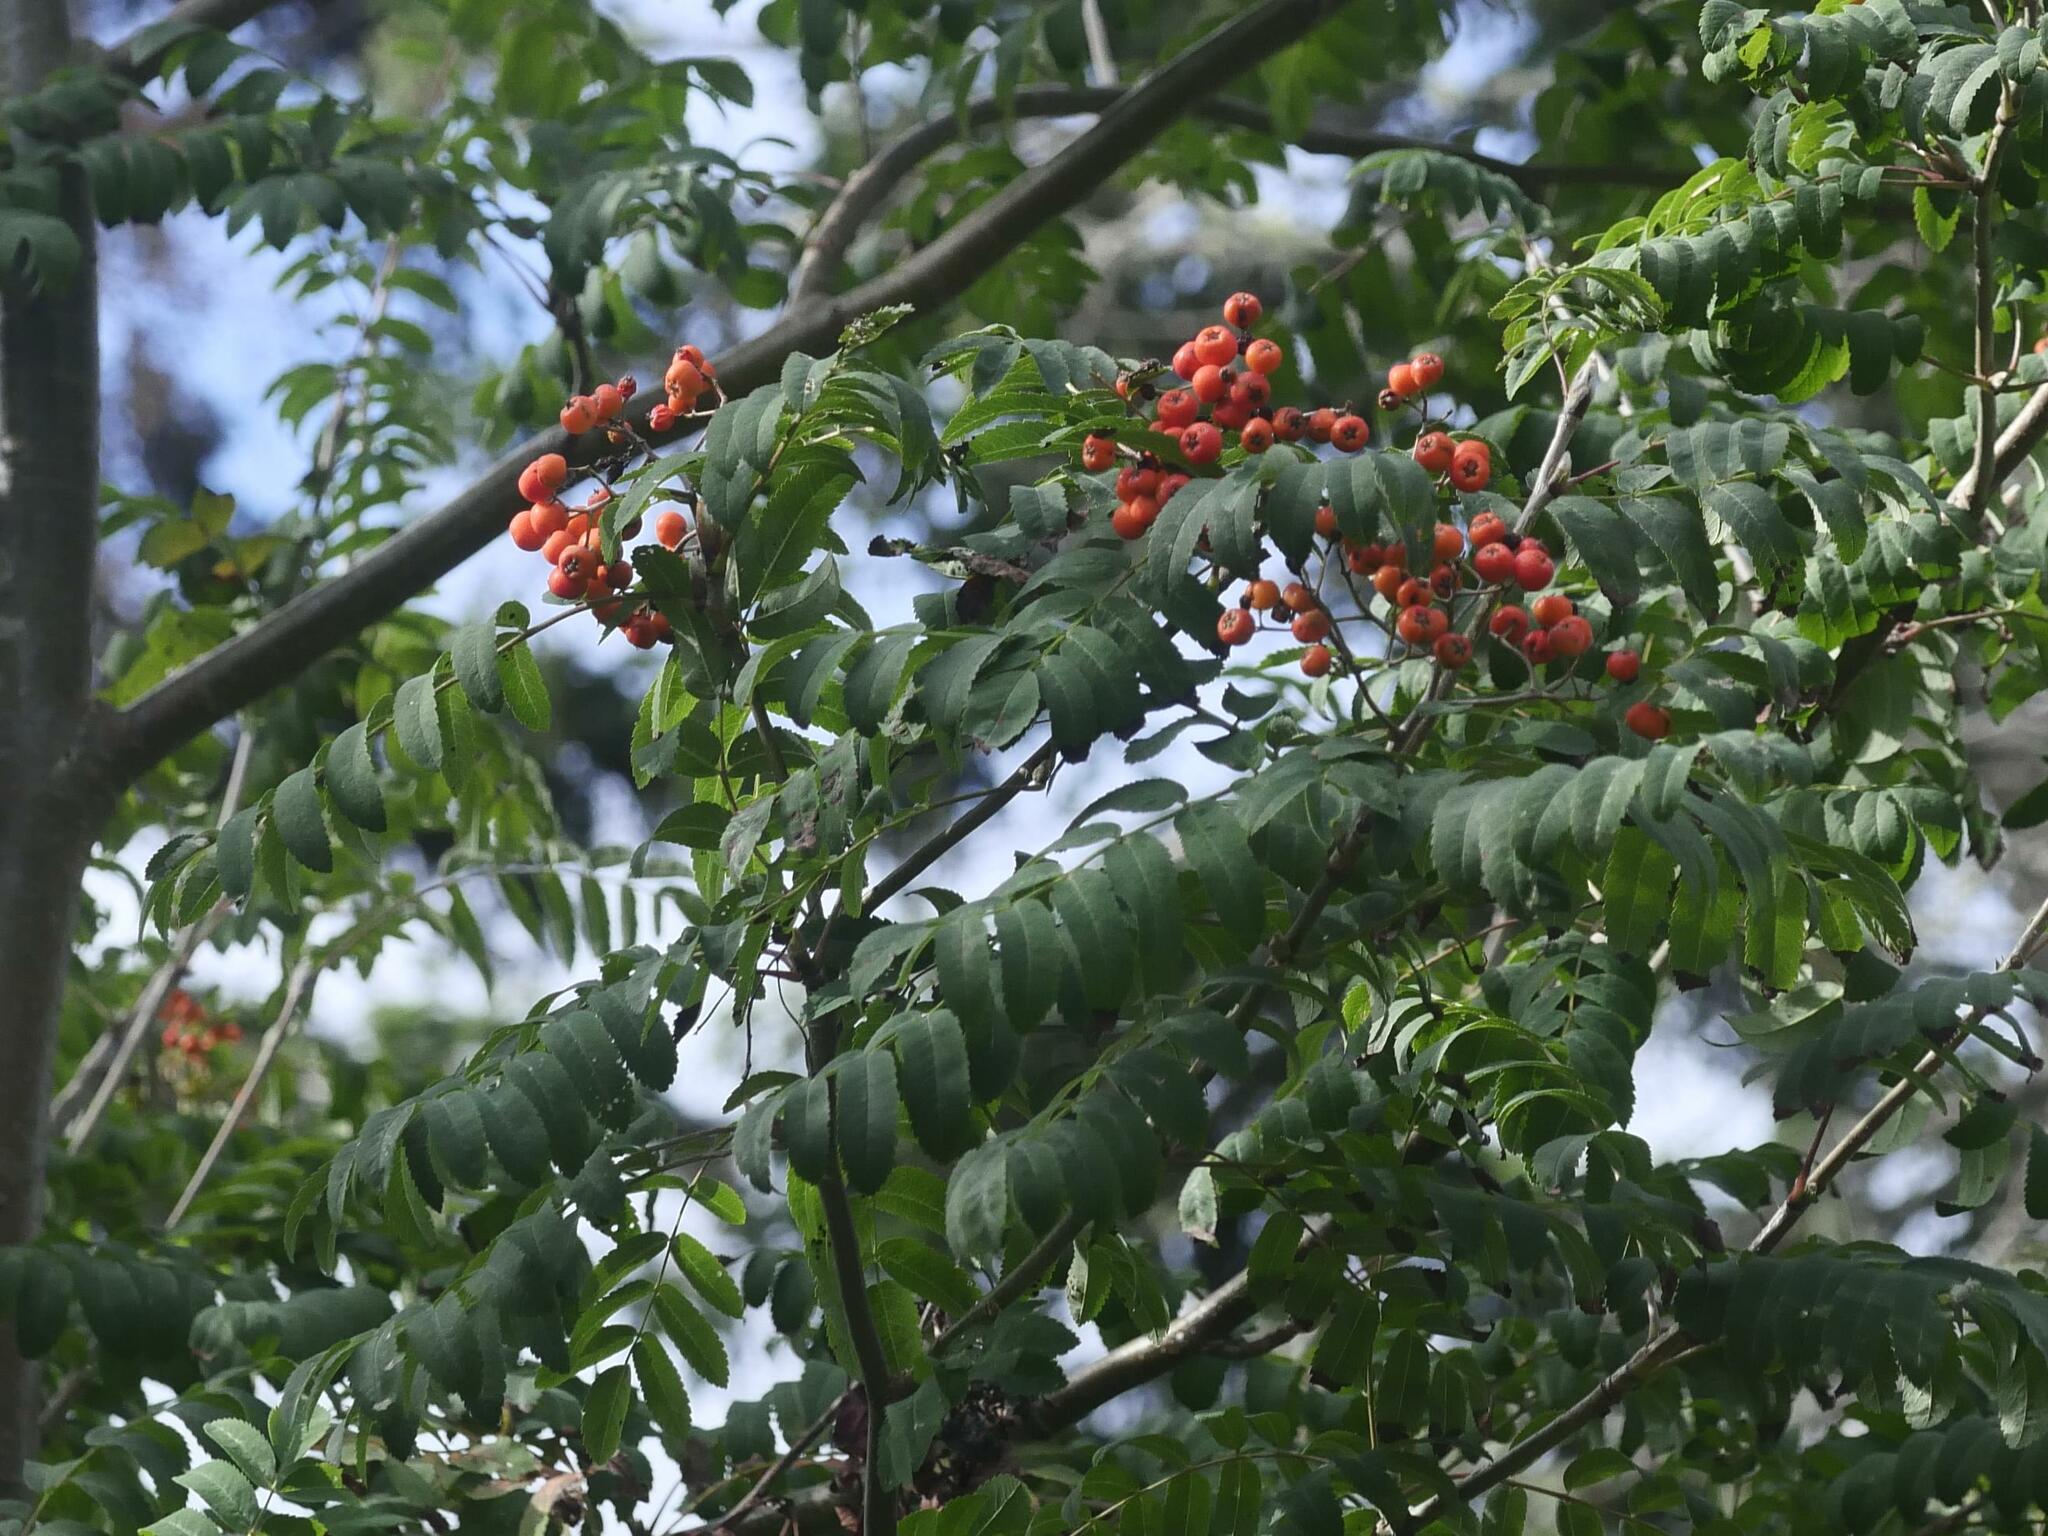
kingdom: Plantae
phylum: Tracheophyta
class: Magnoliopsida
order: Rosales
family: Rosaceae
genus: Sorbus
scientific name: Sorbus aucuparia
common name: Rowan
